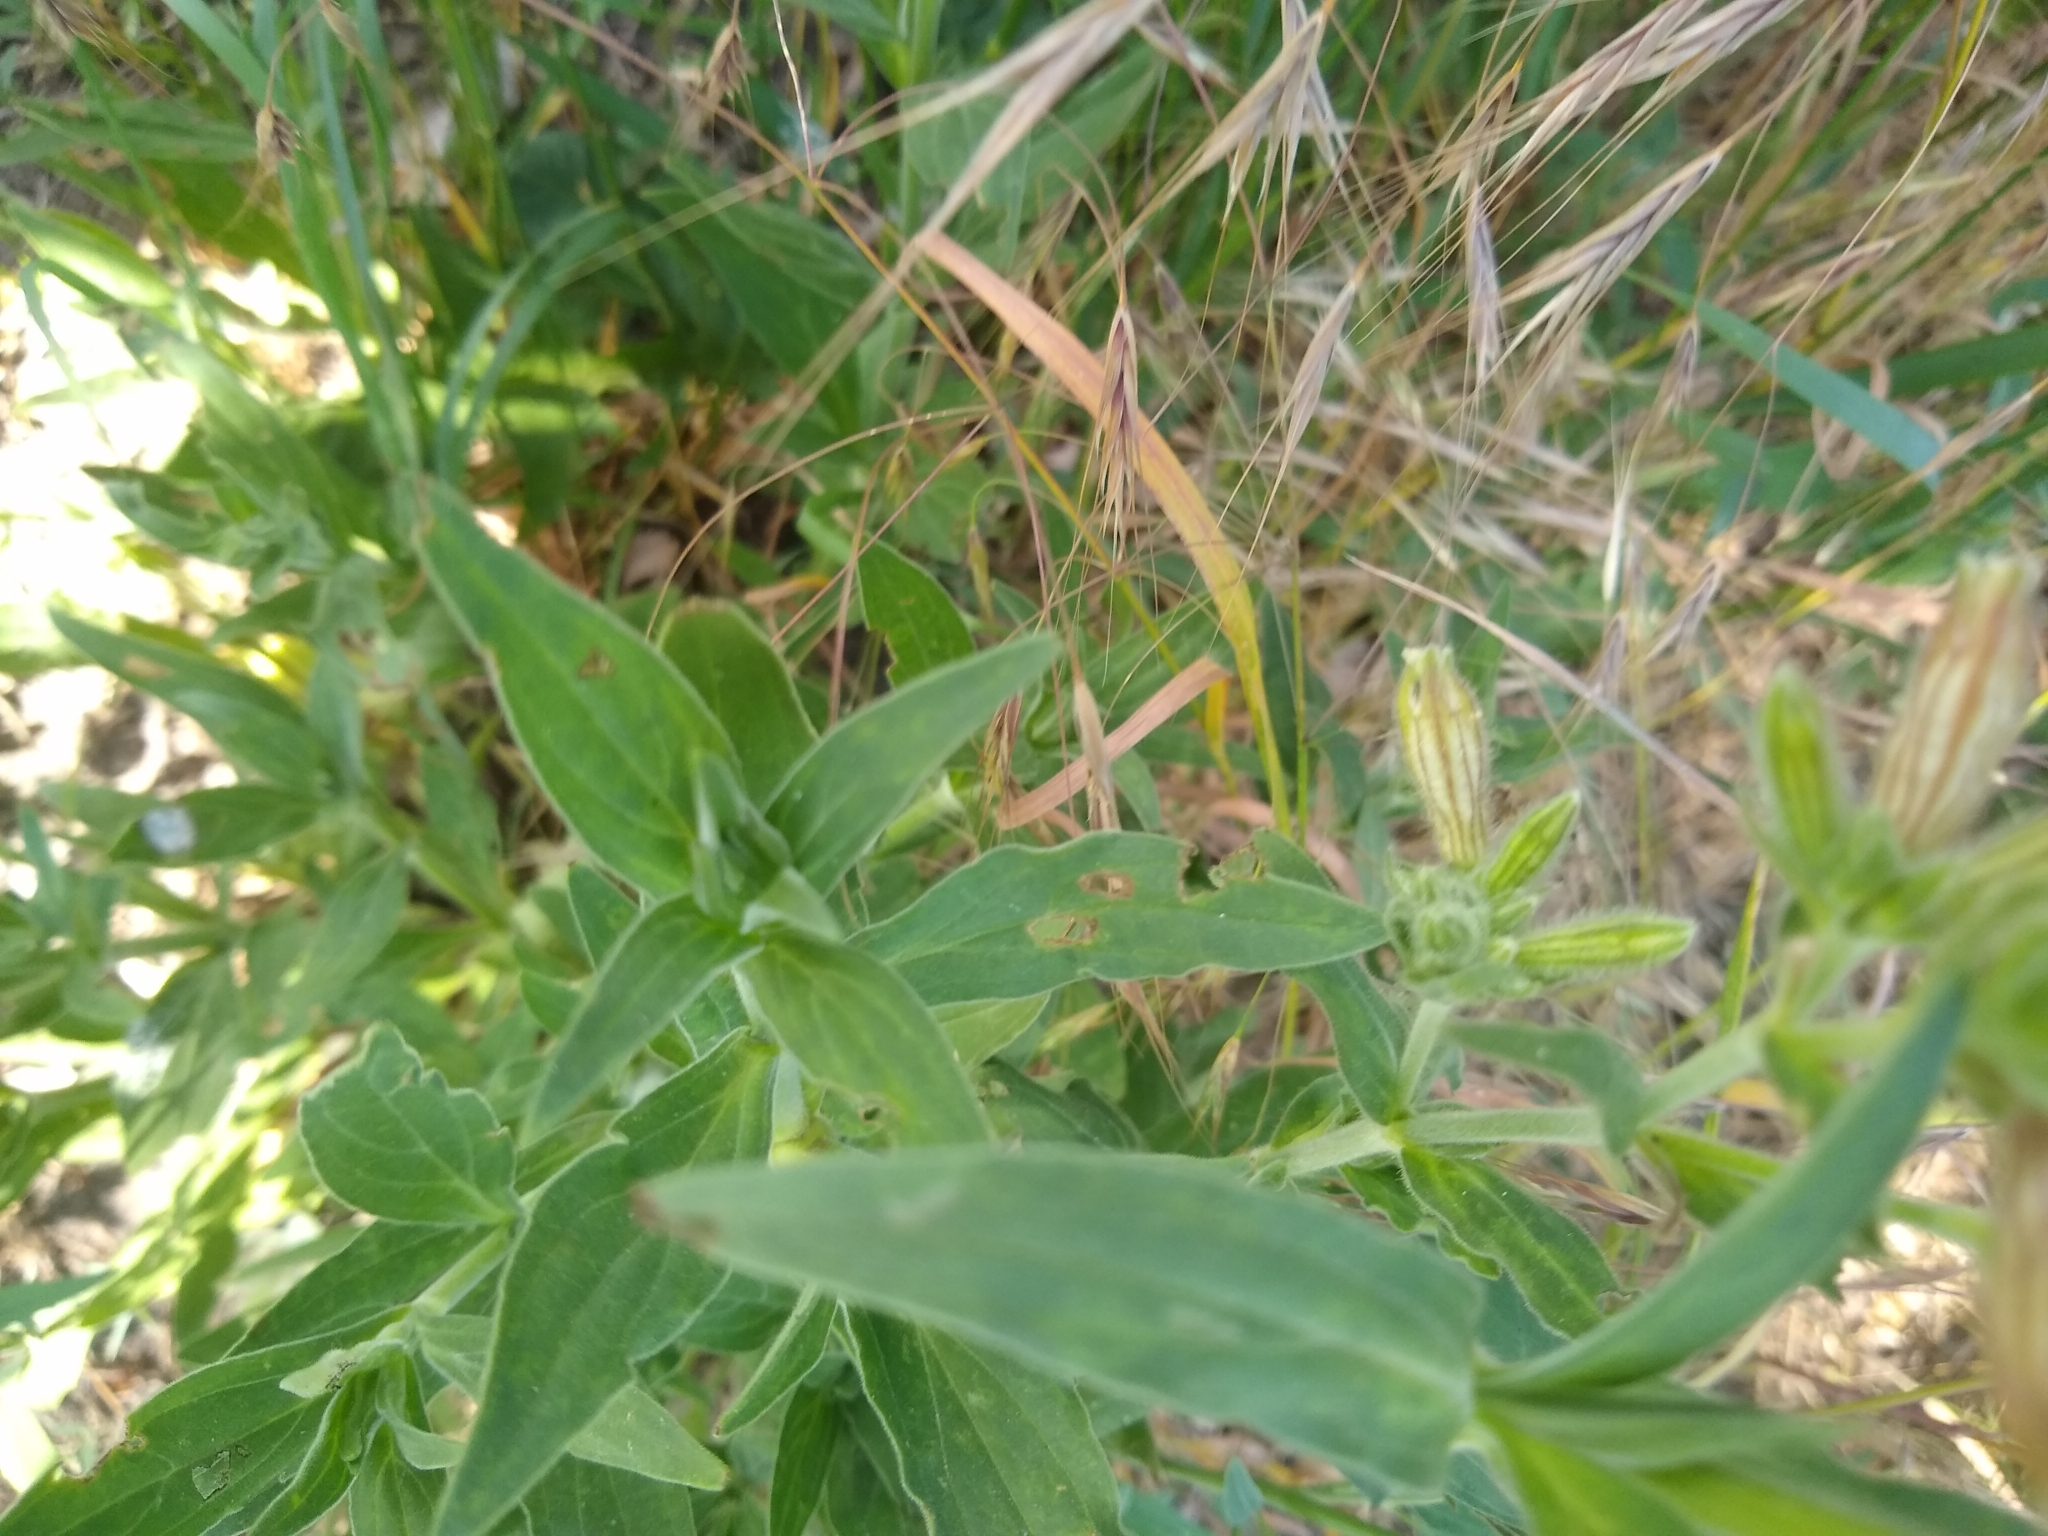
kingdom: Plantae
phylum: Tracheophyta
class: Magnoliopsida
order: Caryophyllales
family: Caryophyllaceae
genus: Silene
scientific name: Silene latifolia
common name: White campion
